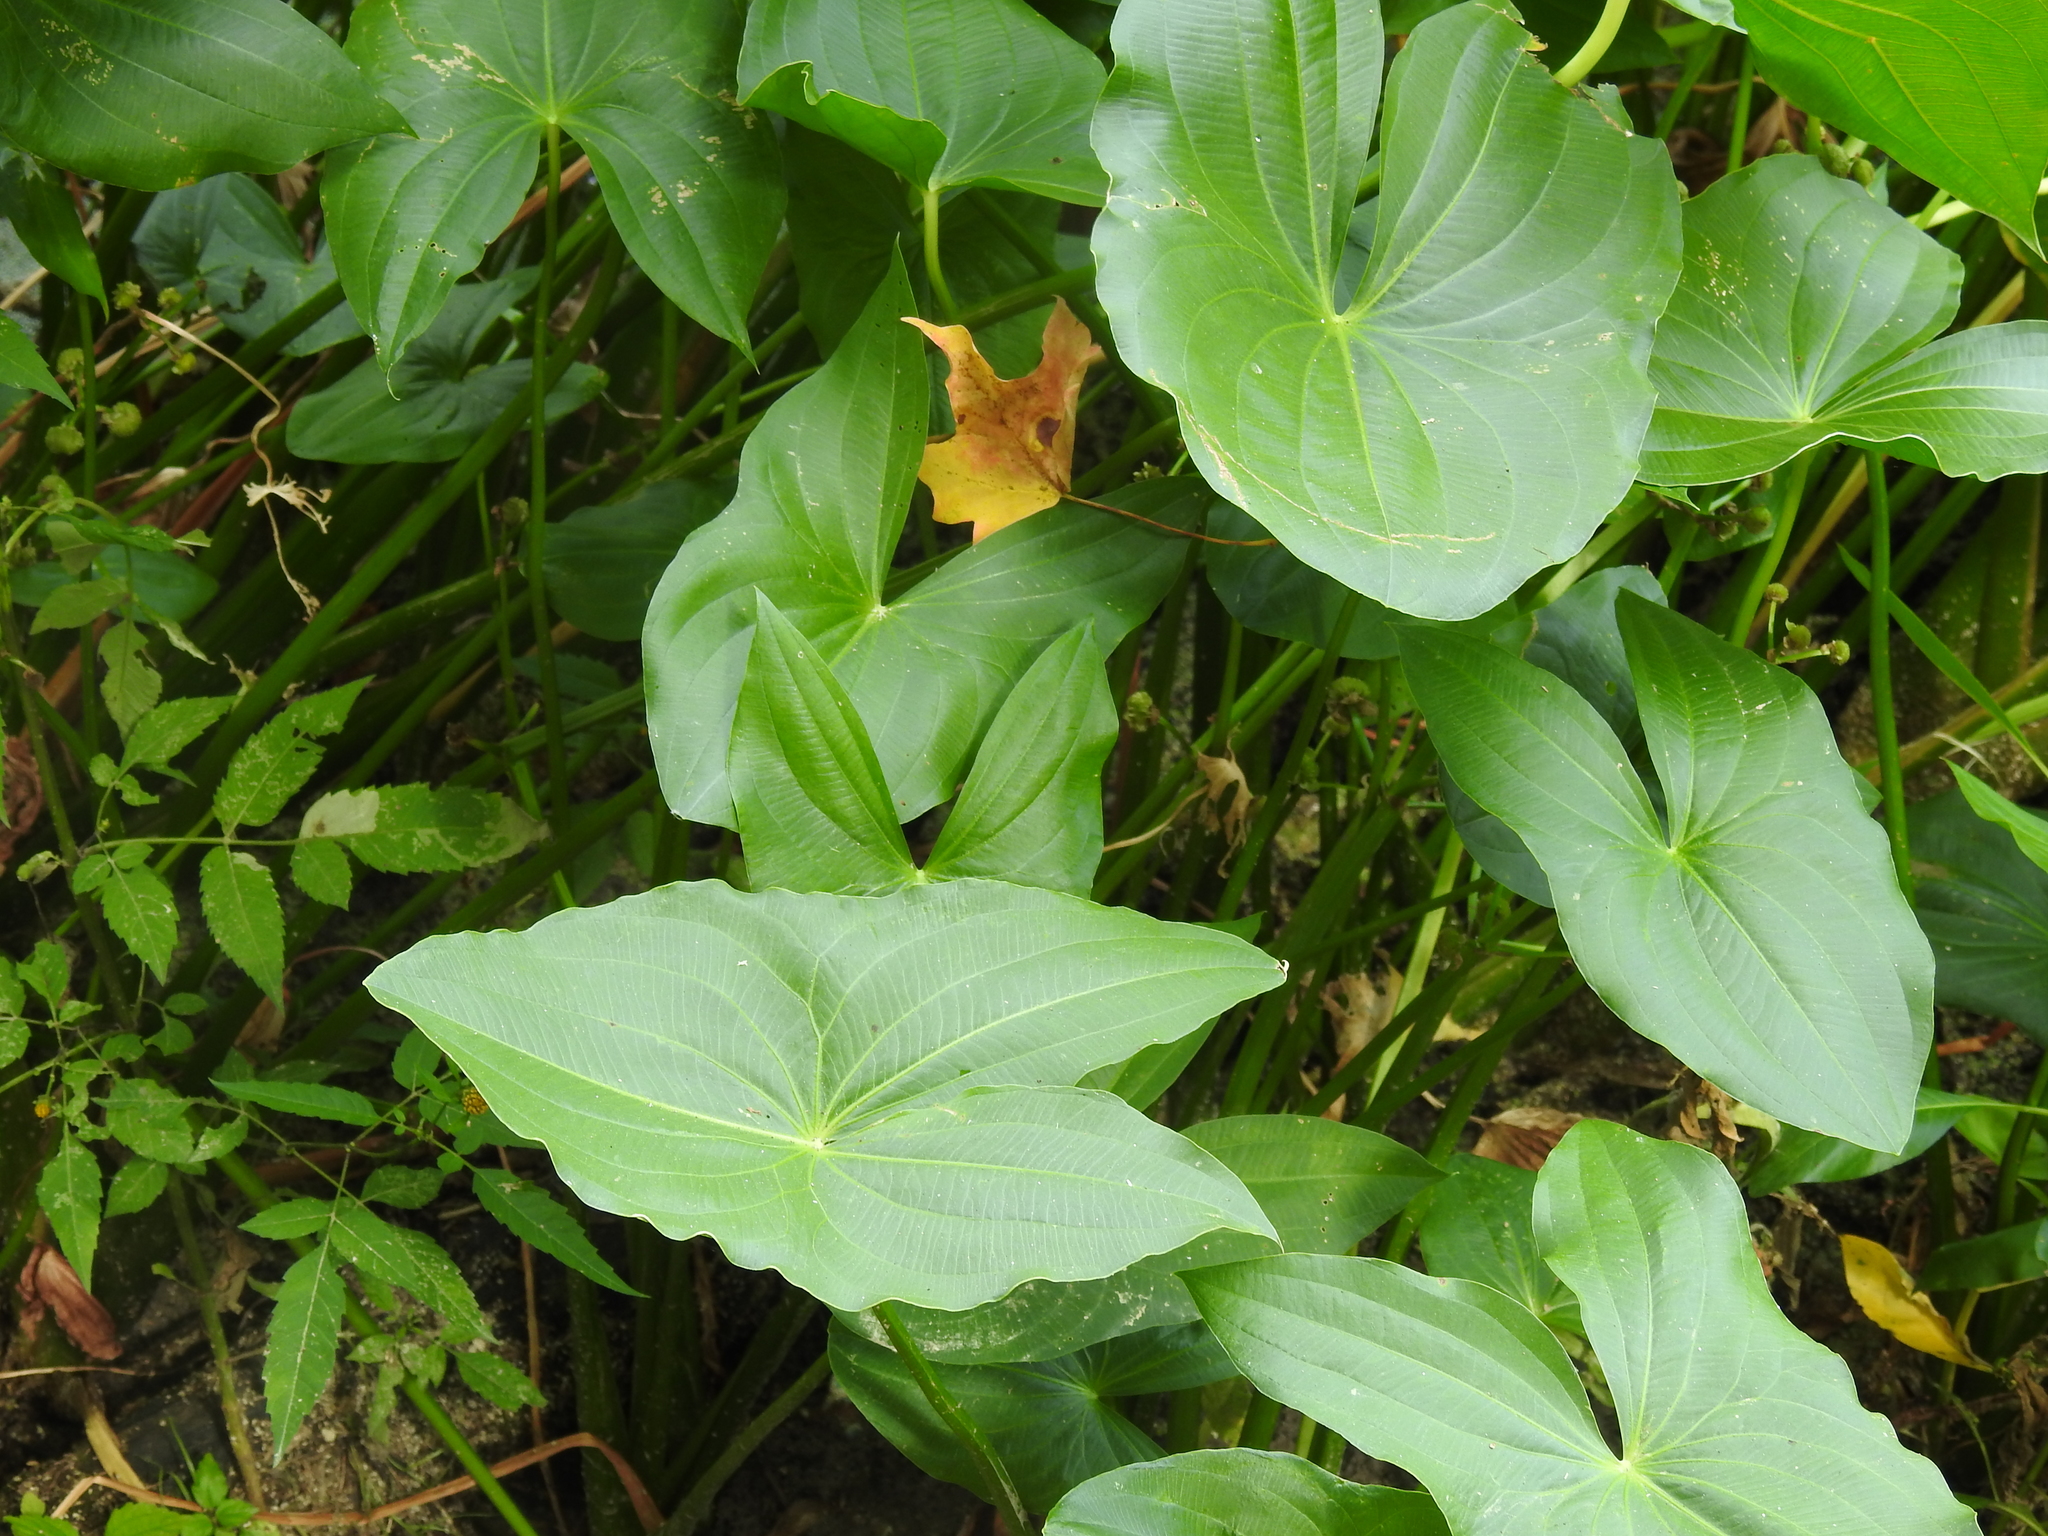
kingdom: Plantae
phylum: Tracheophyta
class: Liliopsida
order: Alismatales
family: Alismataceae
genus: Sagittaria
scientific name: Sagittaria latifolia
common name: Duck-potato
